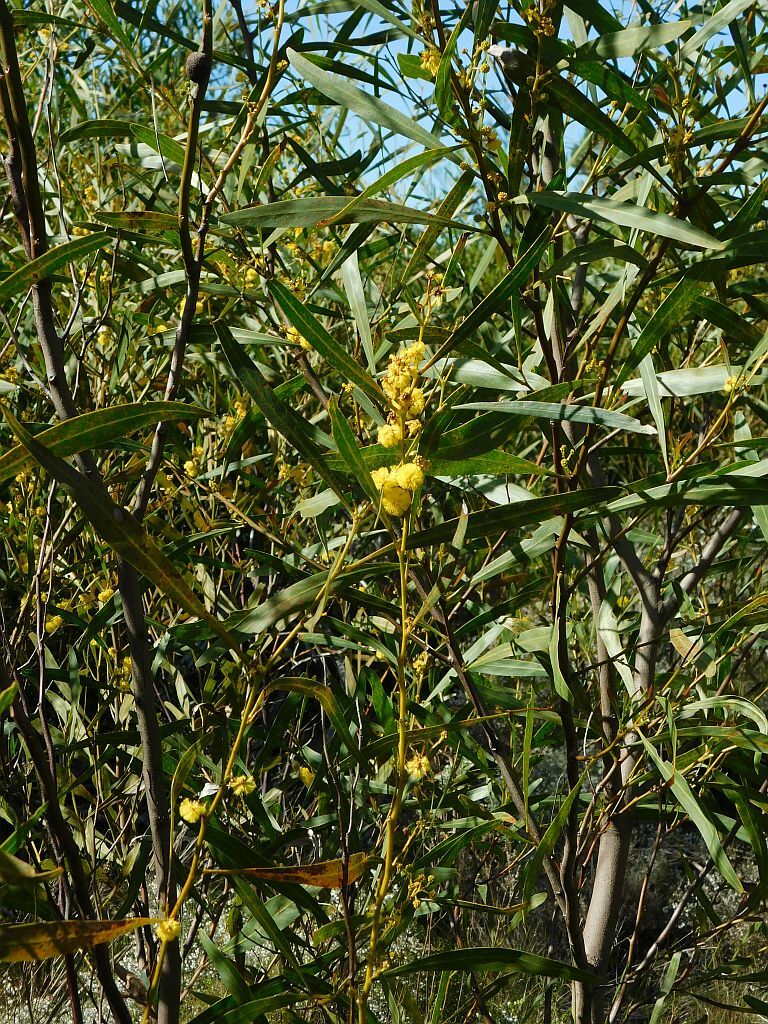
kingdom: Plantae
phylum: Tracheophyta
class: Magnoliopsida
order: Fabales
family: Fabaceae
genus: Acacia
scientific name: Acacia saligna
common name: Orange wattle
